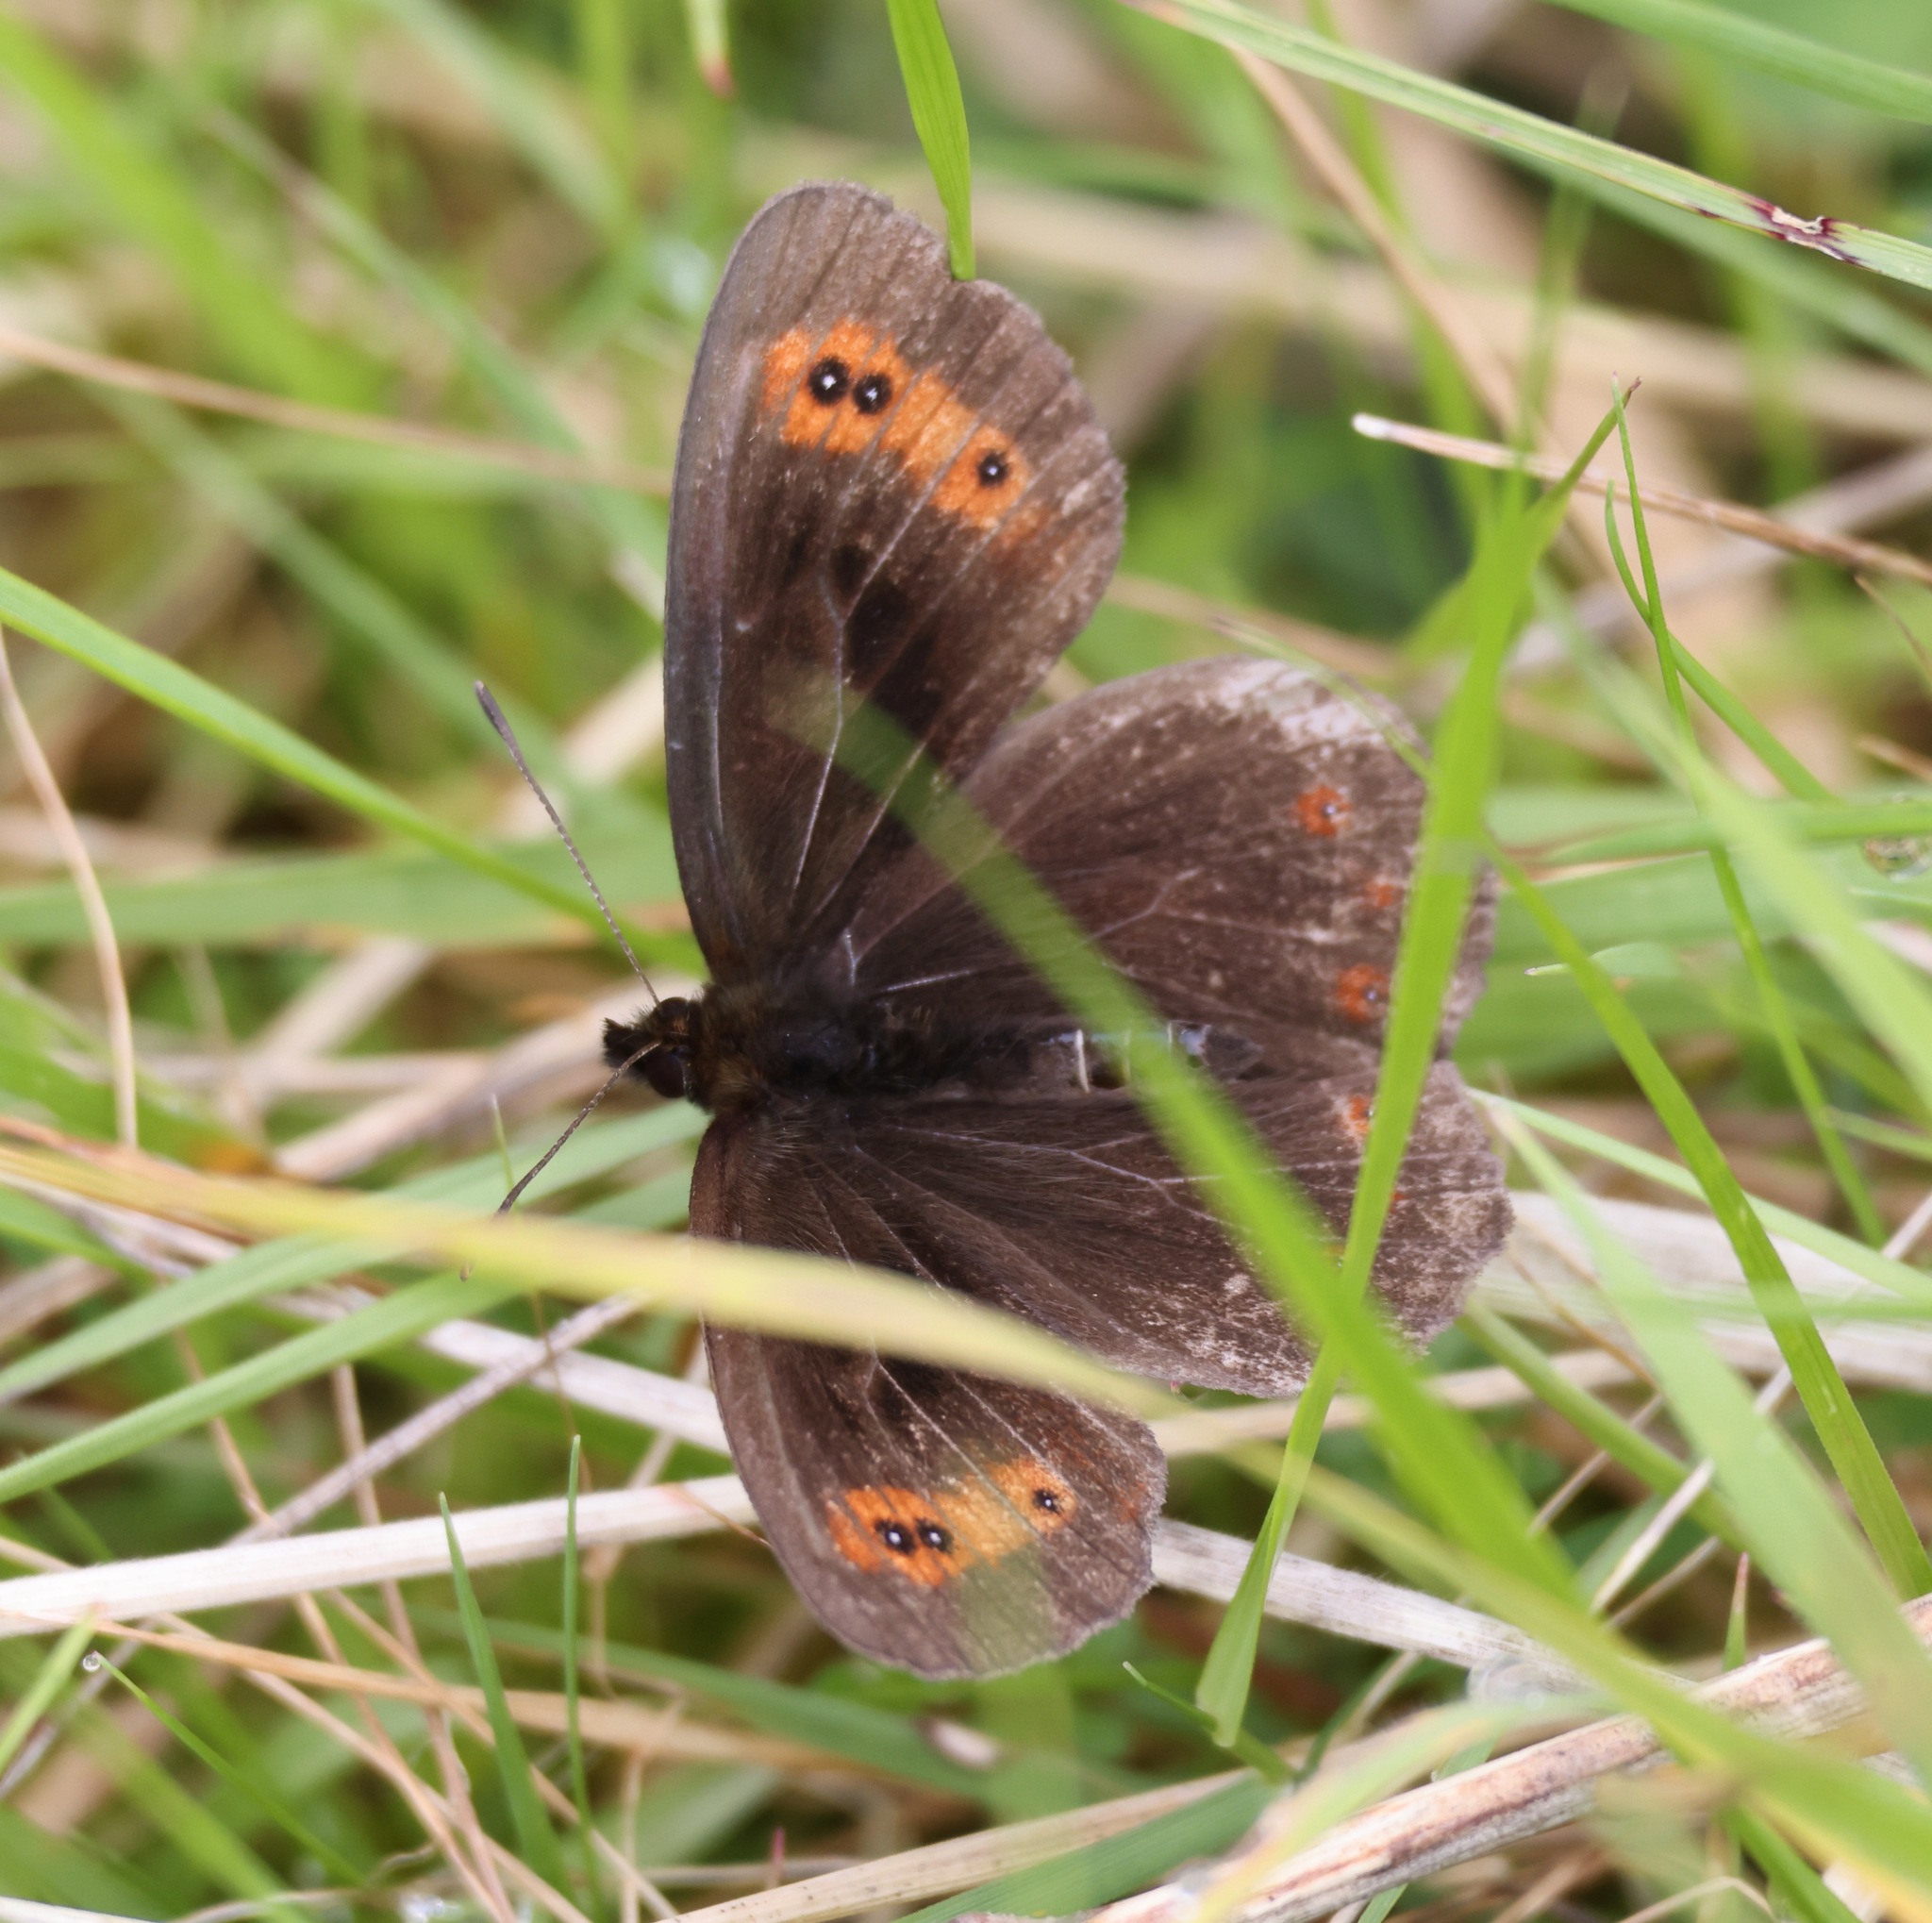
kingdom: Animalia
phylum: Arthropoda
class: Insecta
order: Lepidoptera
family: Nymphalidae
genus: Erebia
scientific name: Erebia aethiops
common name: Scotch argus
